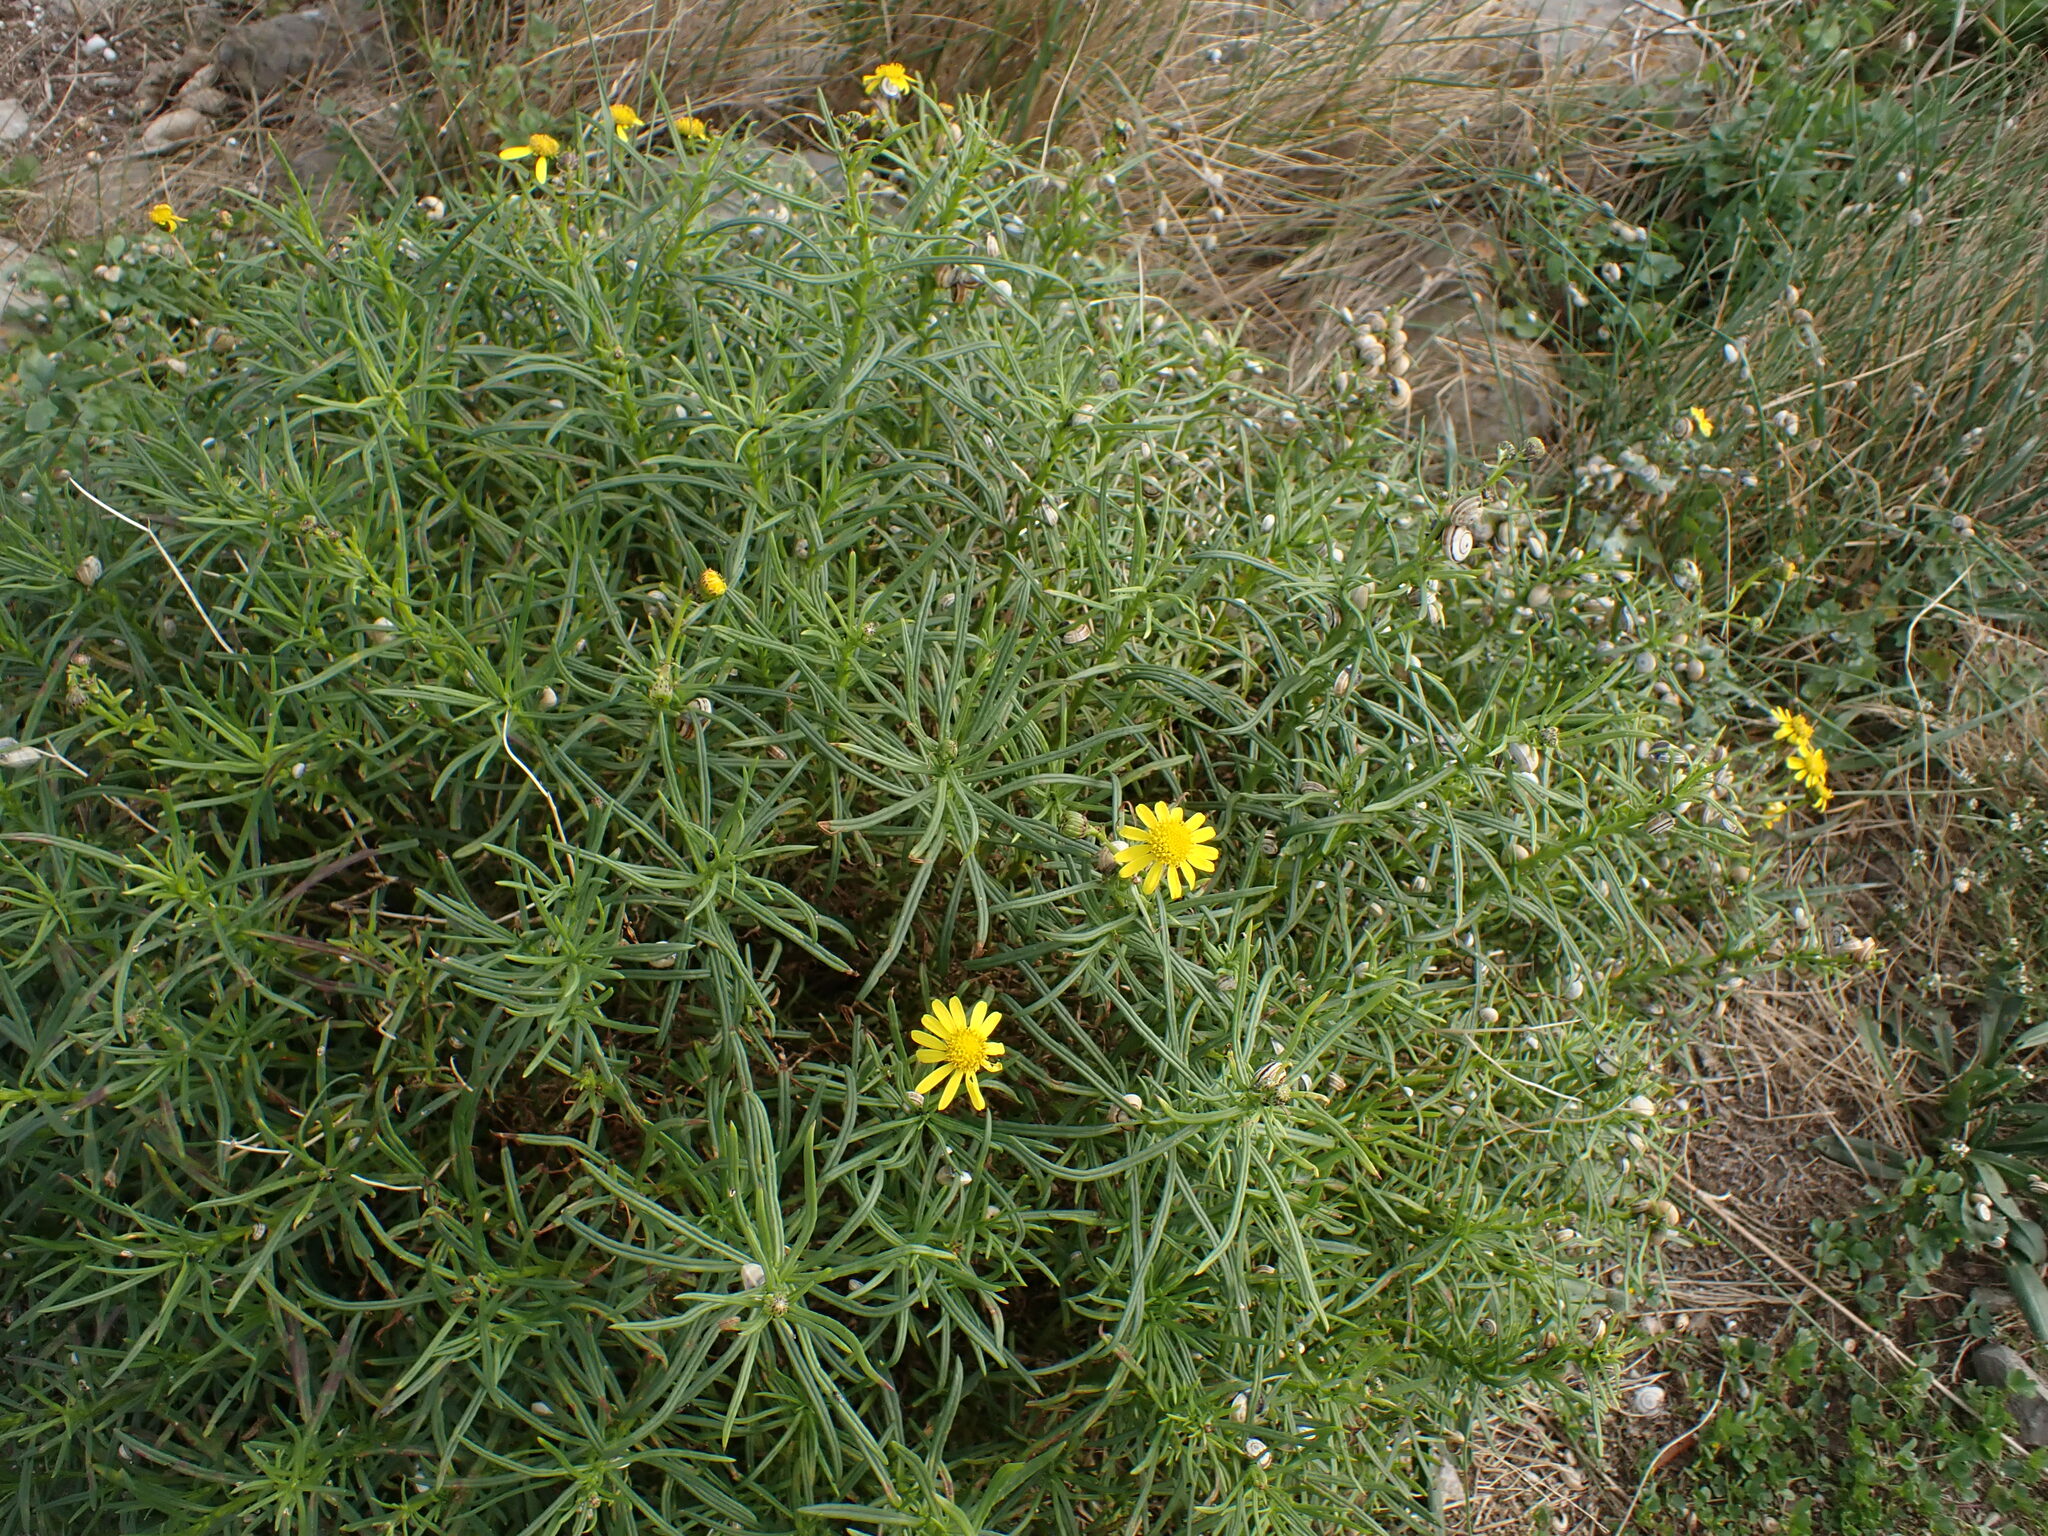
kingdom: Plantae
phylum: Tracheophyta
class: Magnoliopsida
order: Asterales
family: Asteraceae
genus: Senecio
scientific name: Senecio inaequidens
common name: Narrow-leaved ragwort
